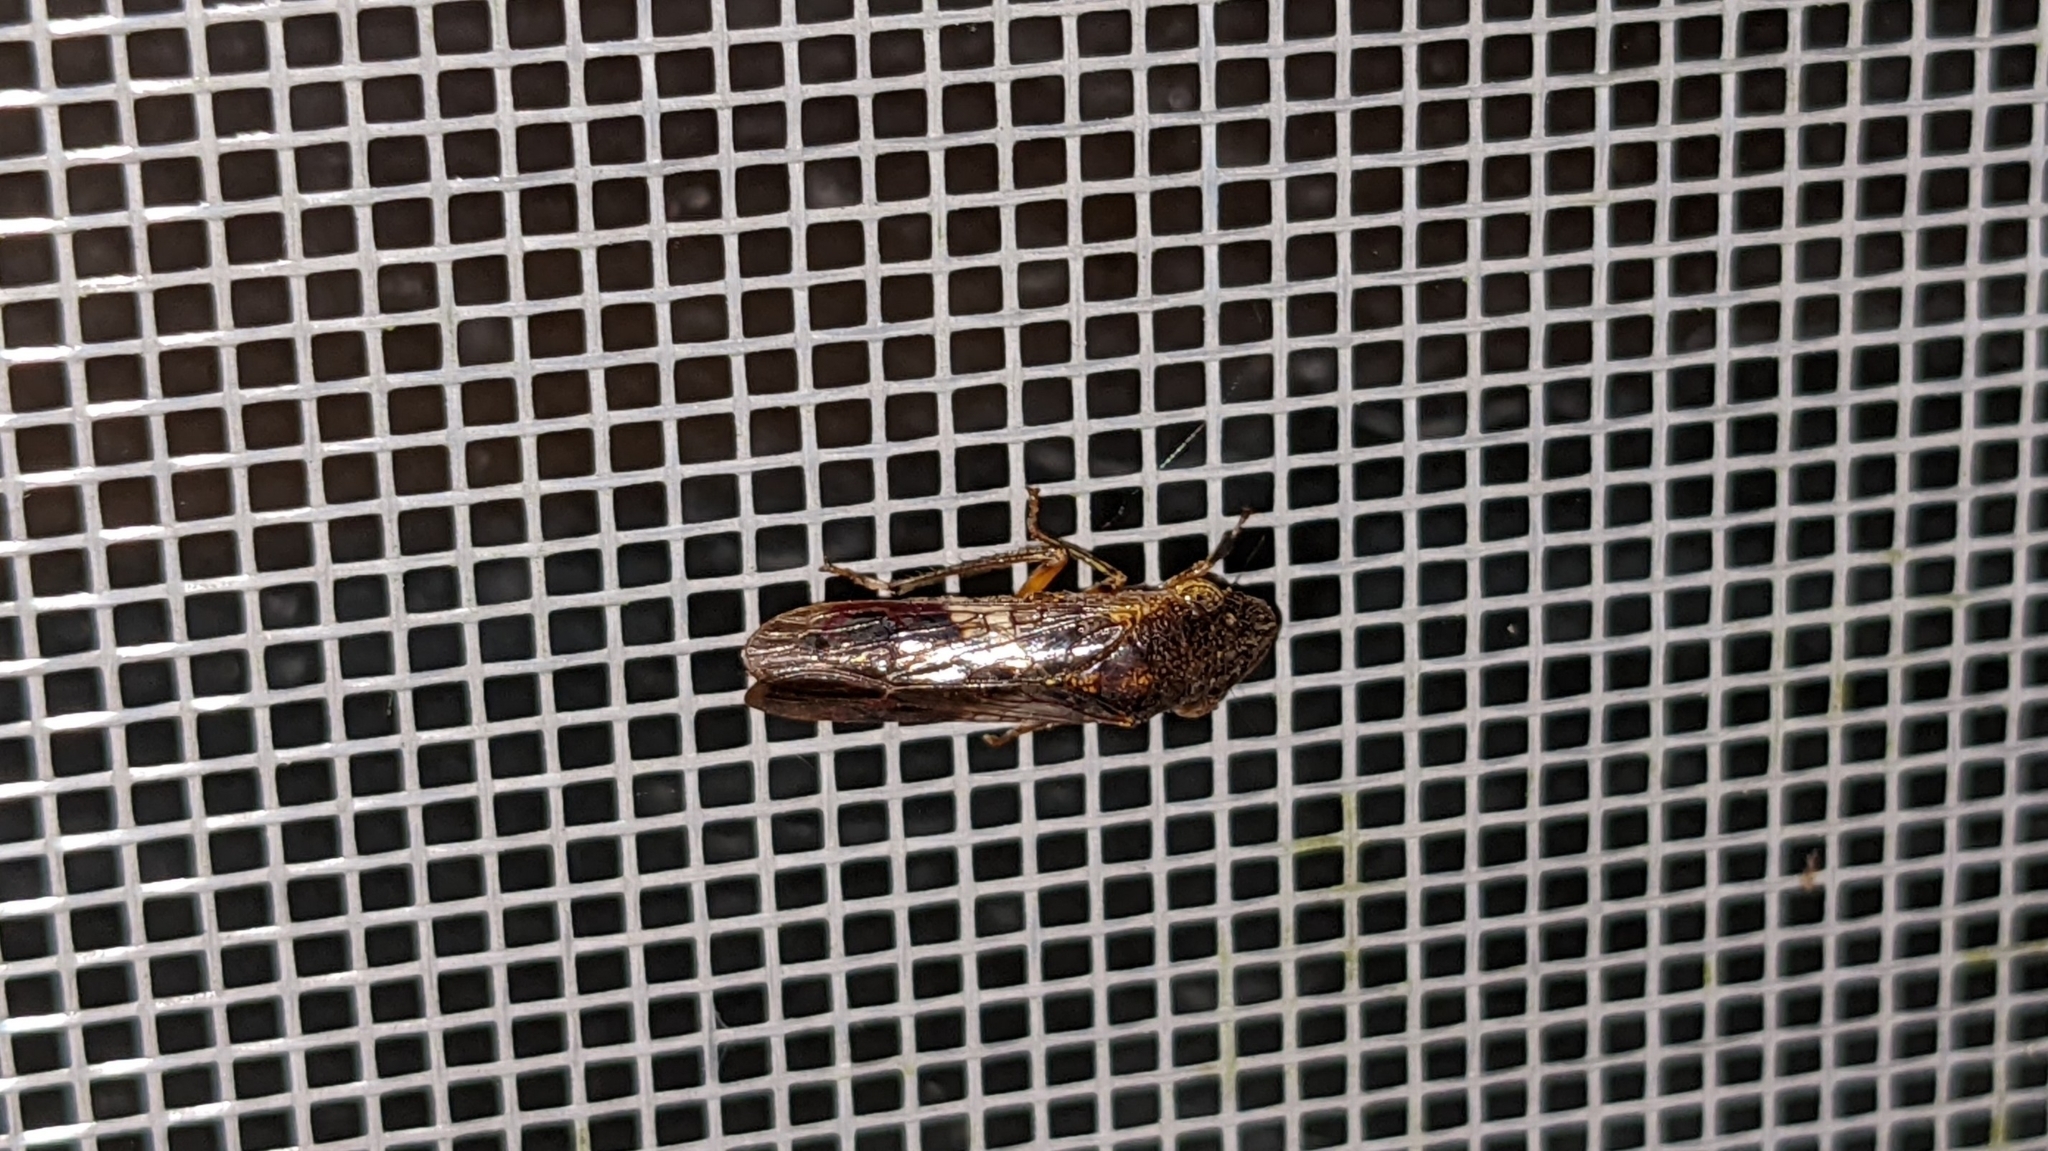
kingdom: Animalia
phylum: Arthropoda
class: Insecta
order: Hemiptera
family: Cicadellidae
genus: Homalodisca
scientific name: Homalodisca vitripennis
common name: Glassy-winged sharpshooter
